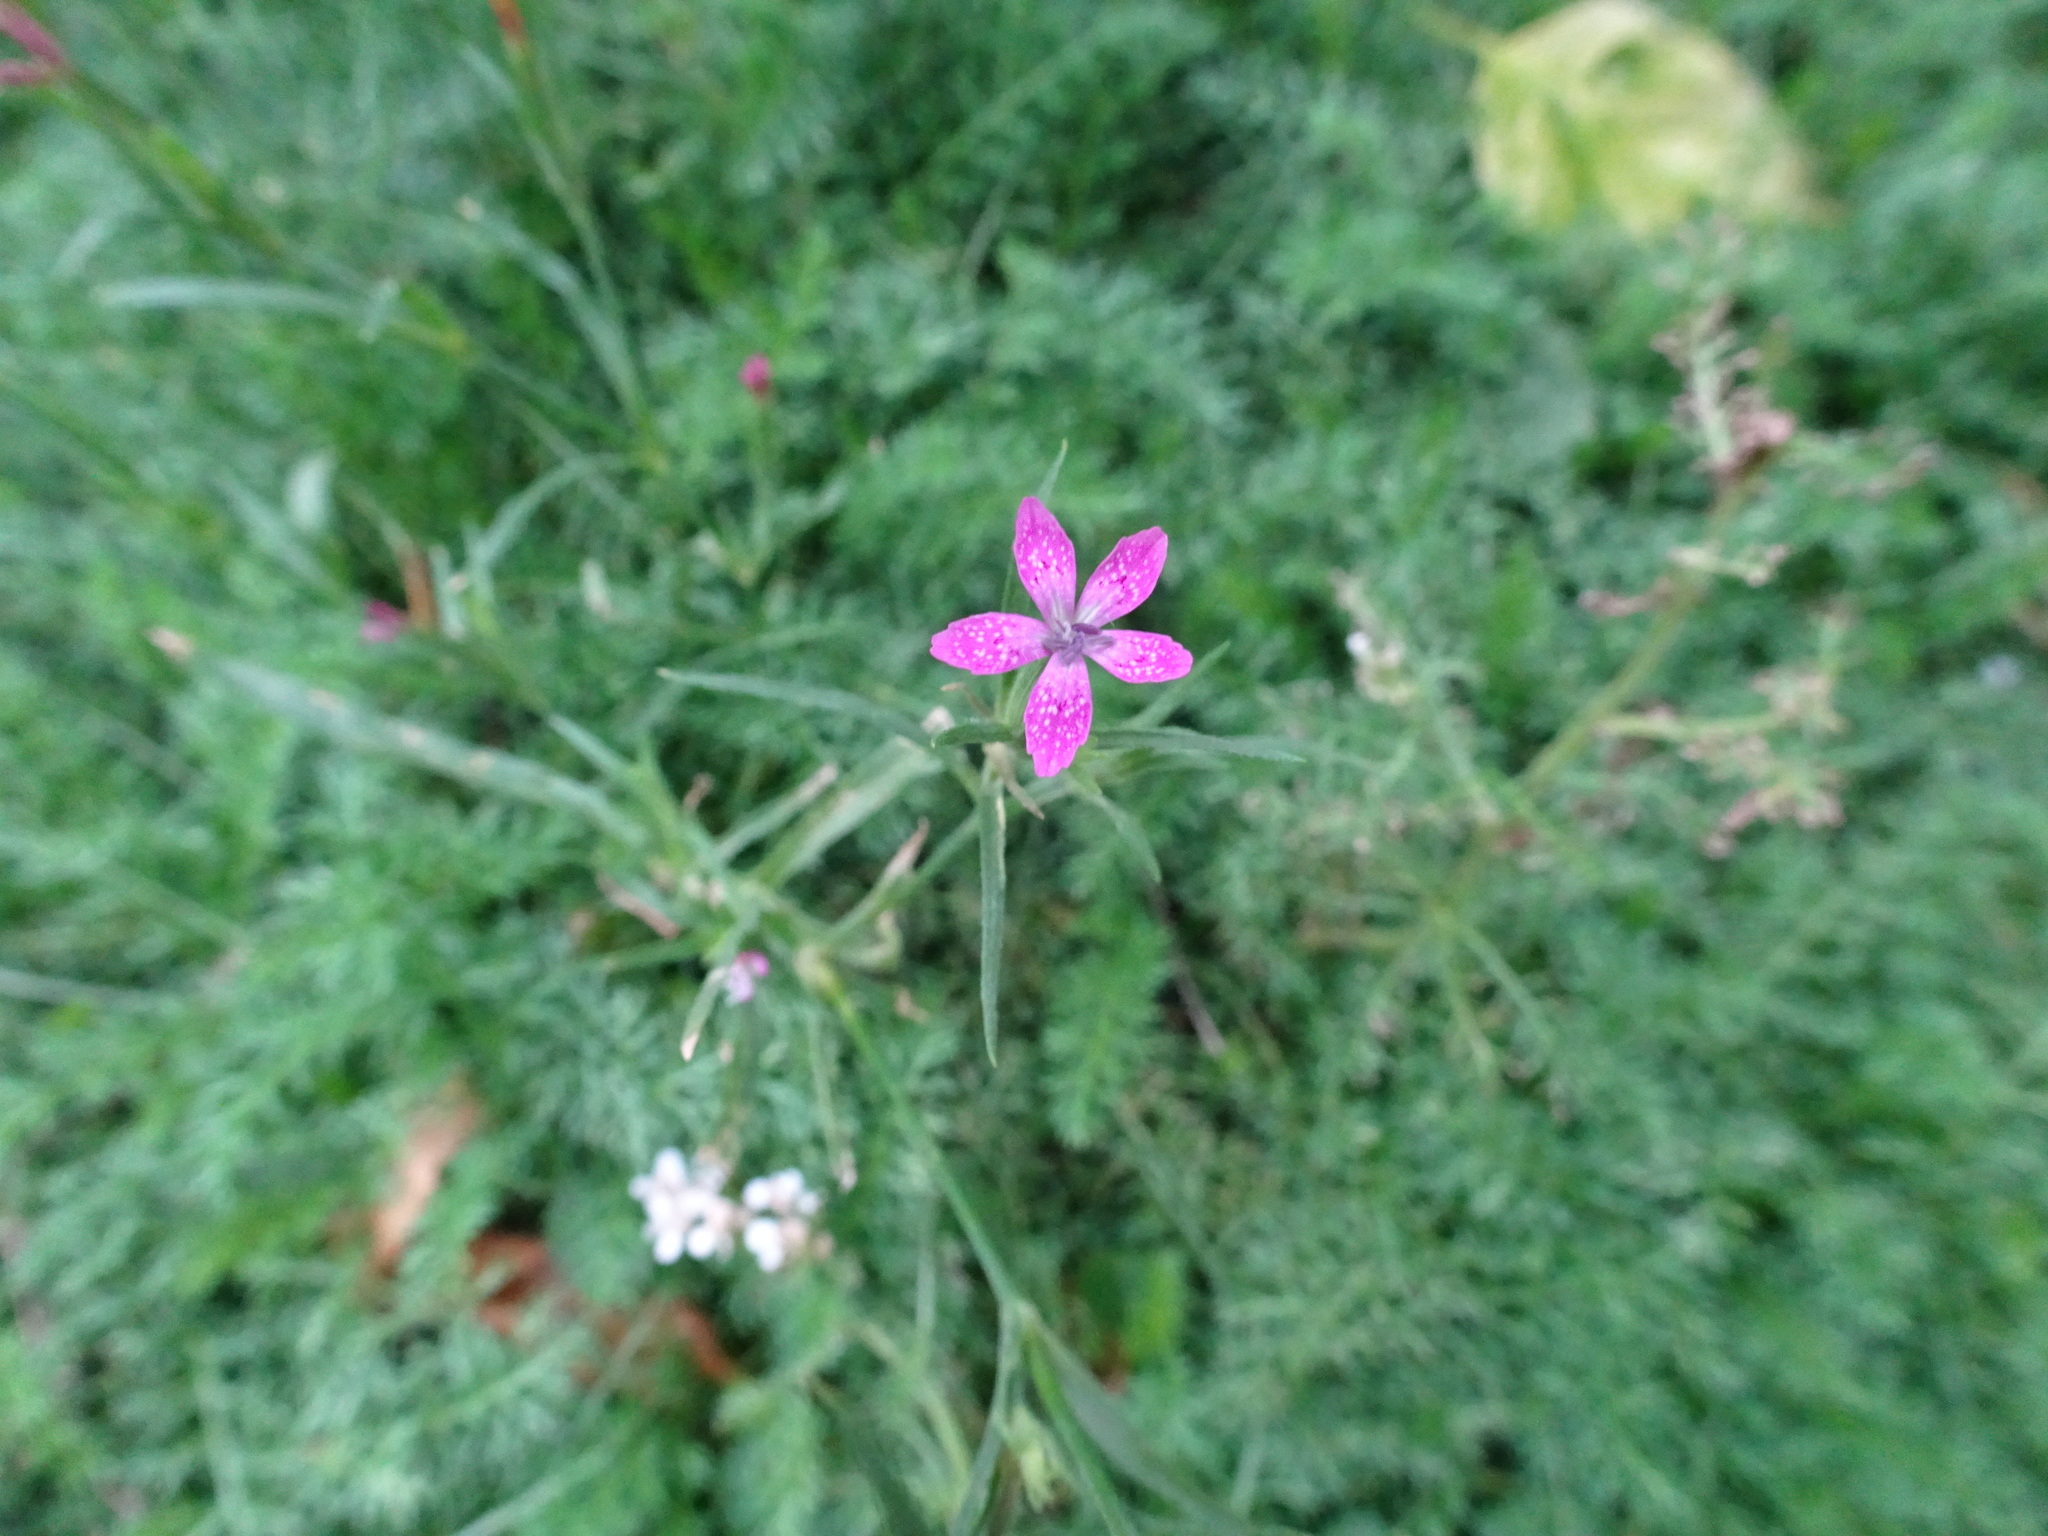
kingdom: Plantae
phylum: Tracheophyta
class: Magnoliopsida
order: Caryophyllales
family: Caryophyllaceae
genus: Dianthus
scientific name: Dianthus armeria
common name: Deptford pink
